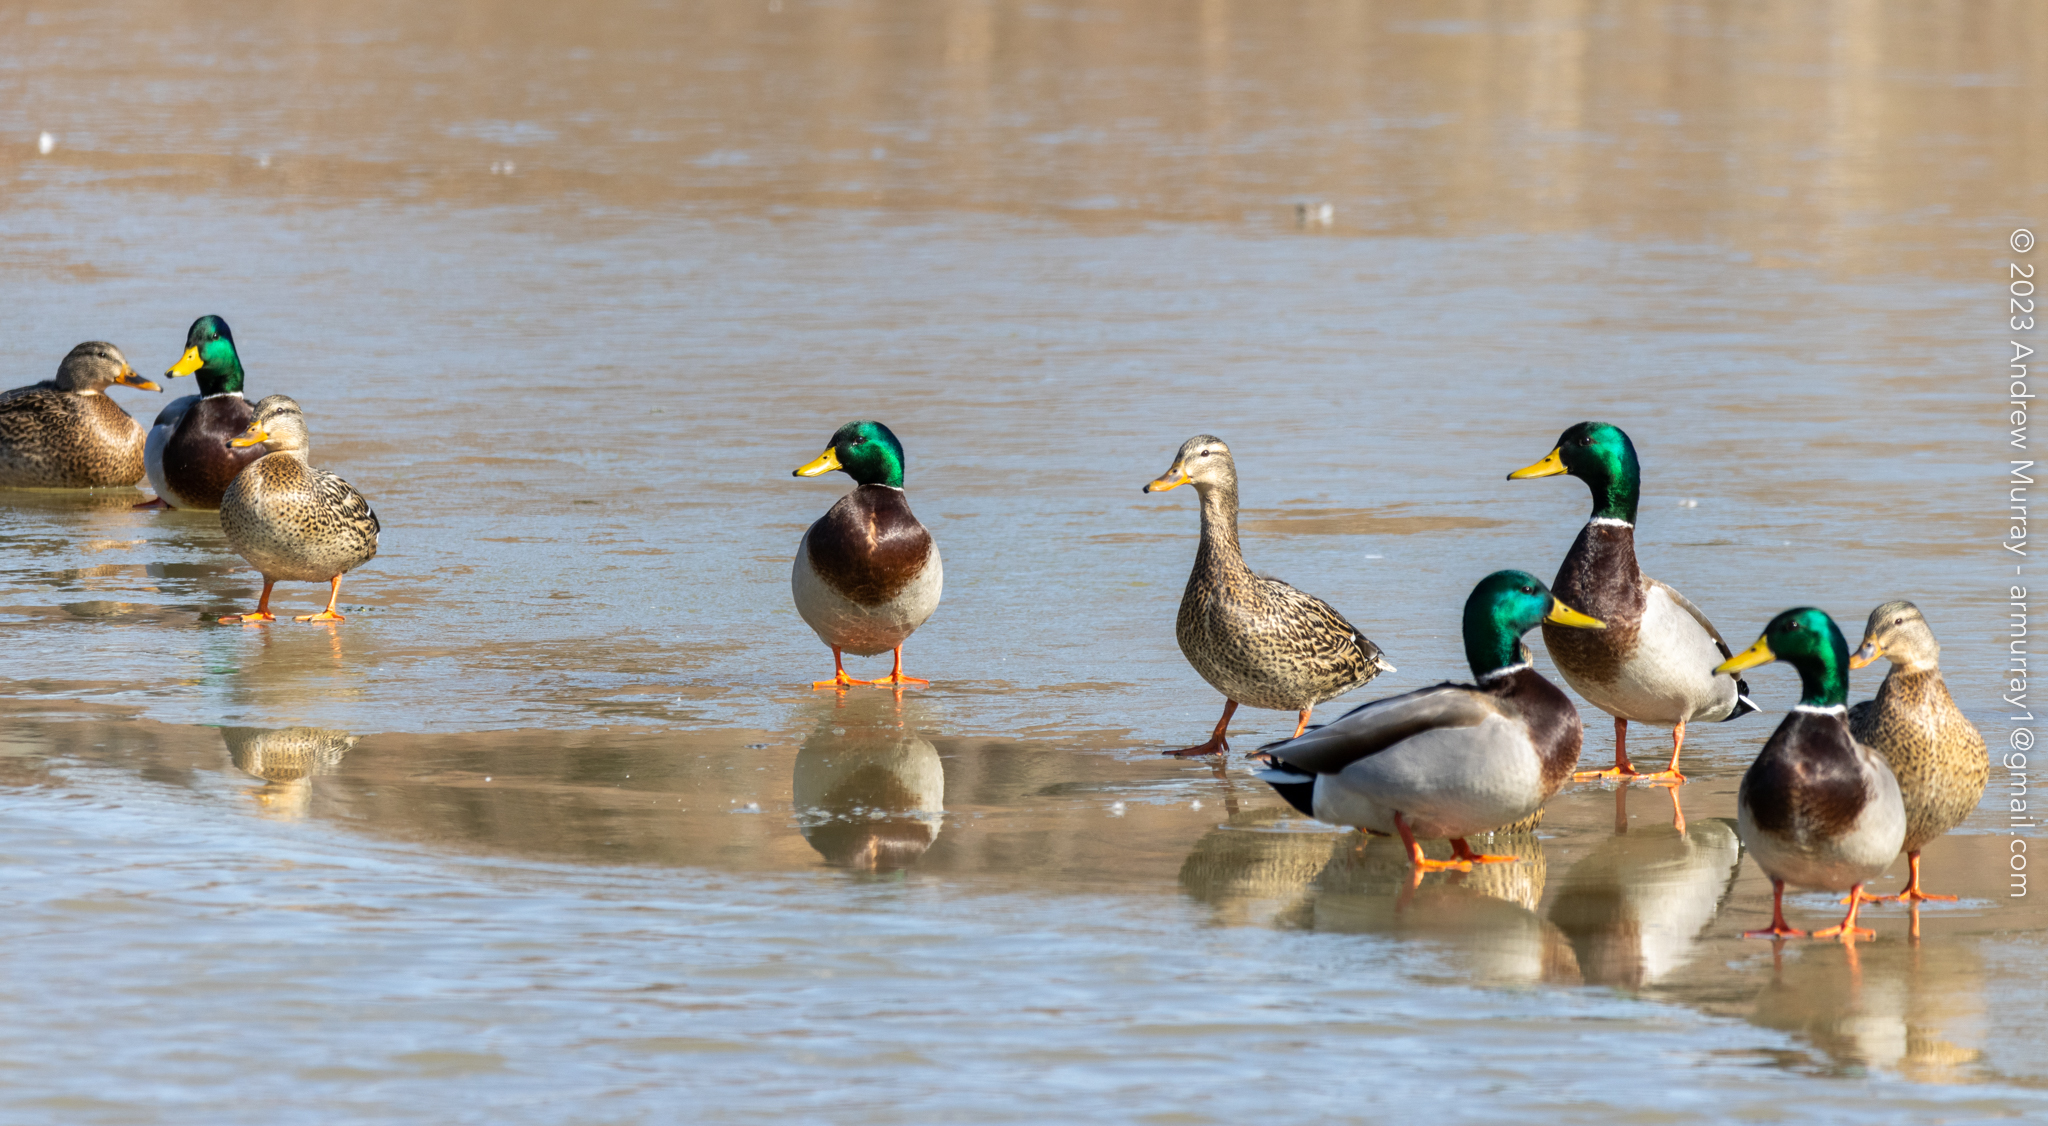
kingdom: Animalia
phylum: Chordata
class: Aves
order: Anseriformes
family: Anatidae
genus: Anas
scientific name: Anas platyrhynchos
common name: Mallard
